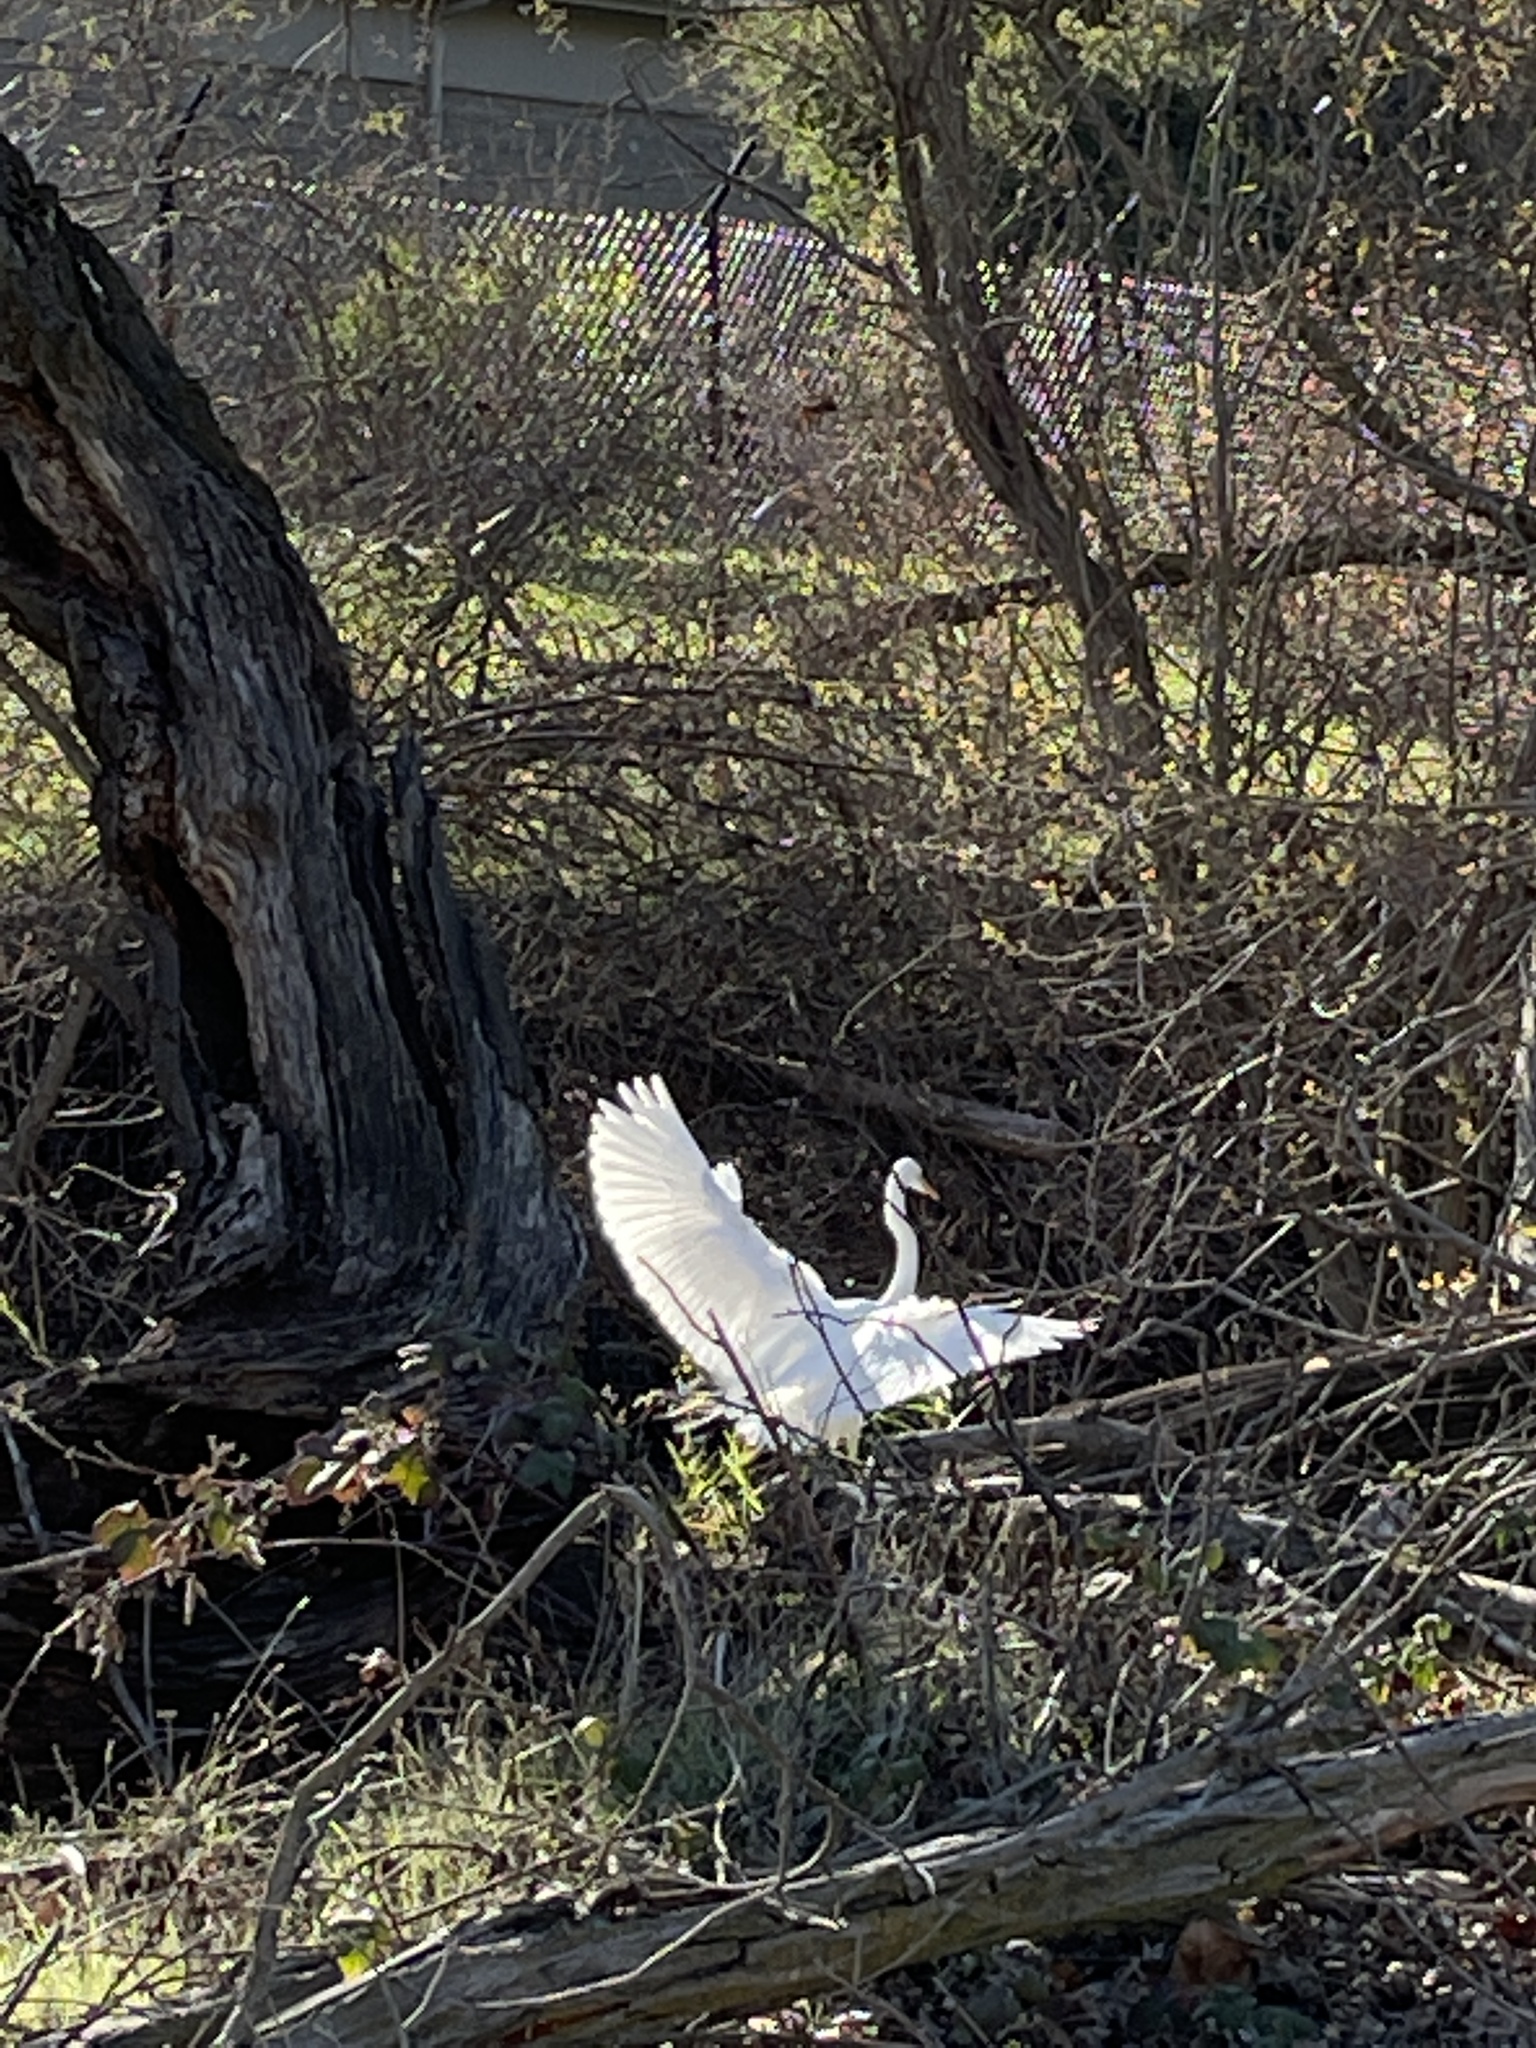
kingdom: Animalia
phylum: Chordata
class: Aves
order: Pelecaniformes
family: Ardeidae
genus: Ardea
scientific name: Ardea alba
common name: Great egret
